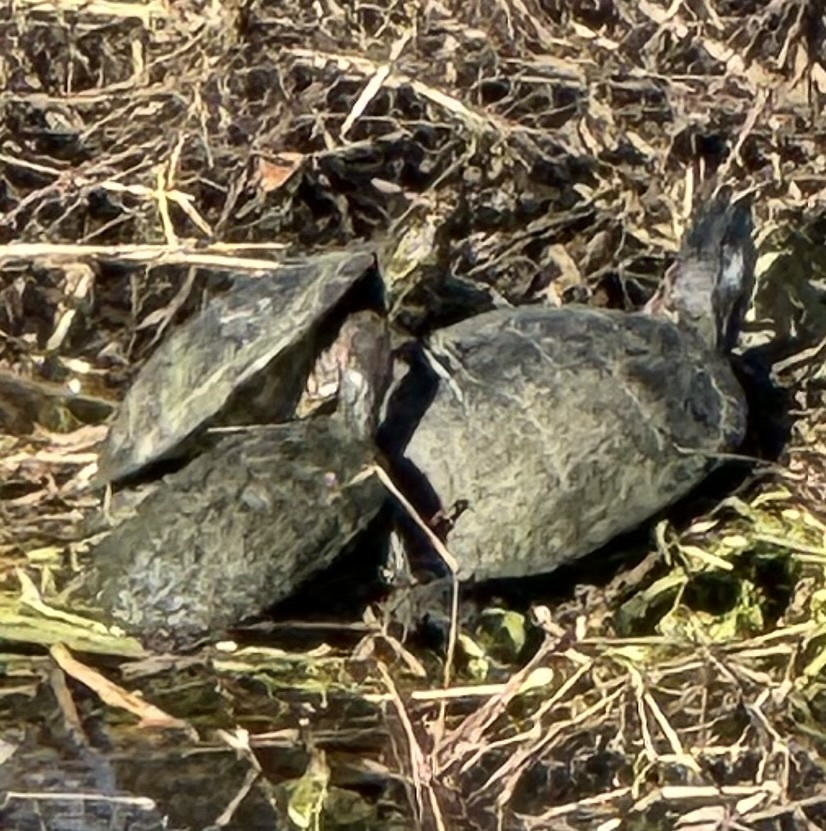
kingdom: Animalia
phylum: Chordata
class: Testudines
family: Emydidae
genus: Trachemys
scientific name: Trachemys scripta
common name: Slider
